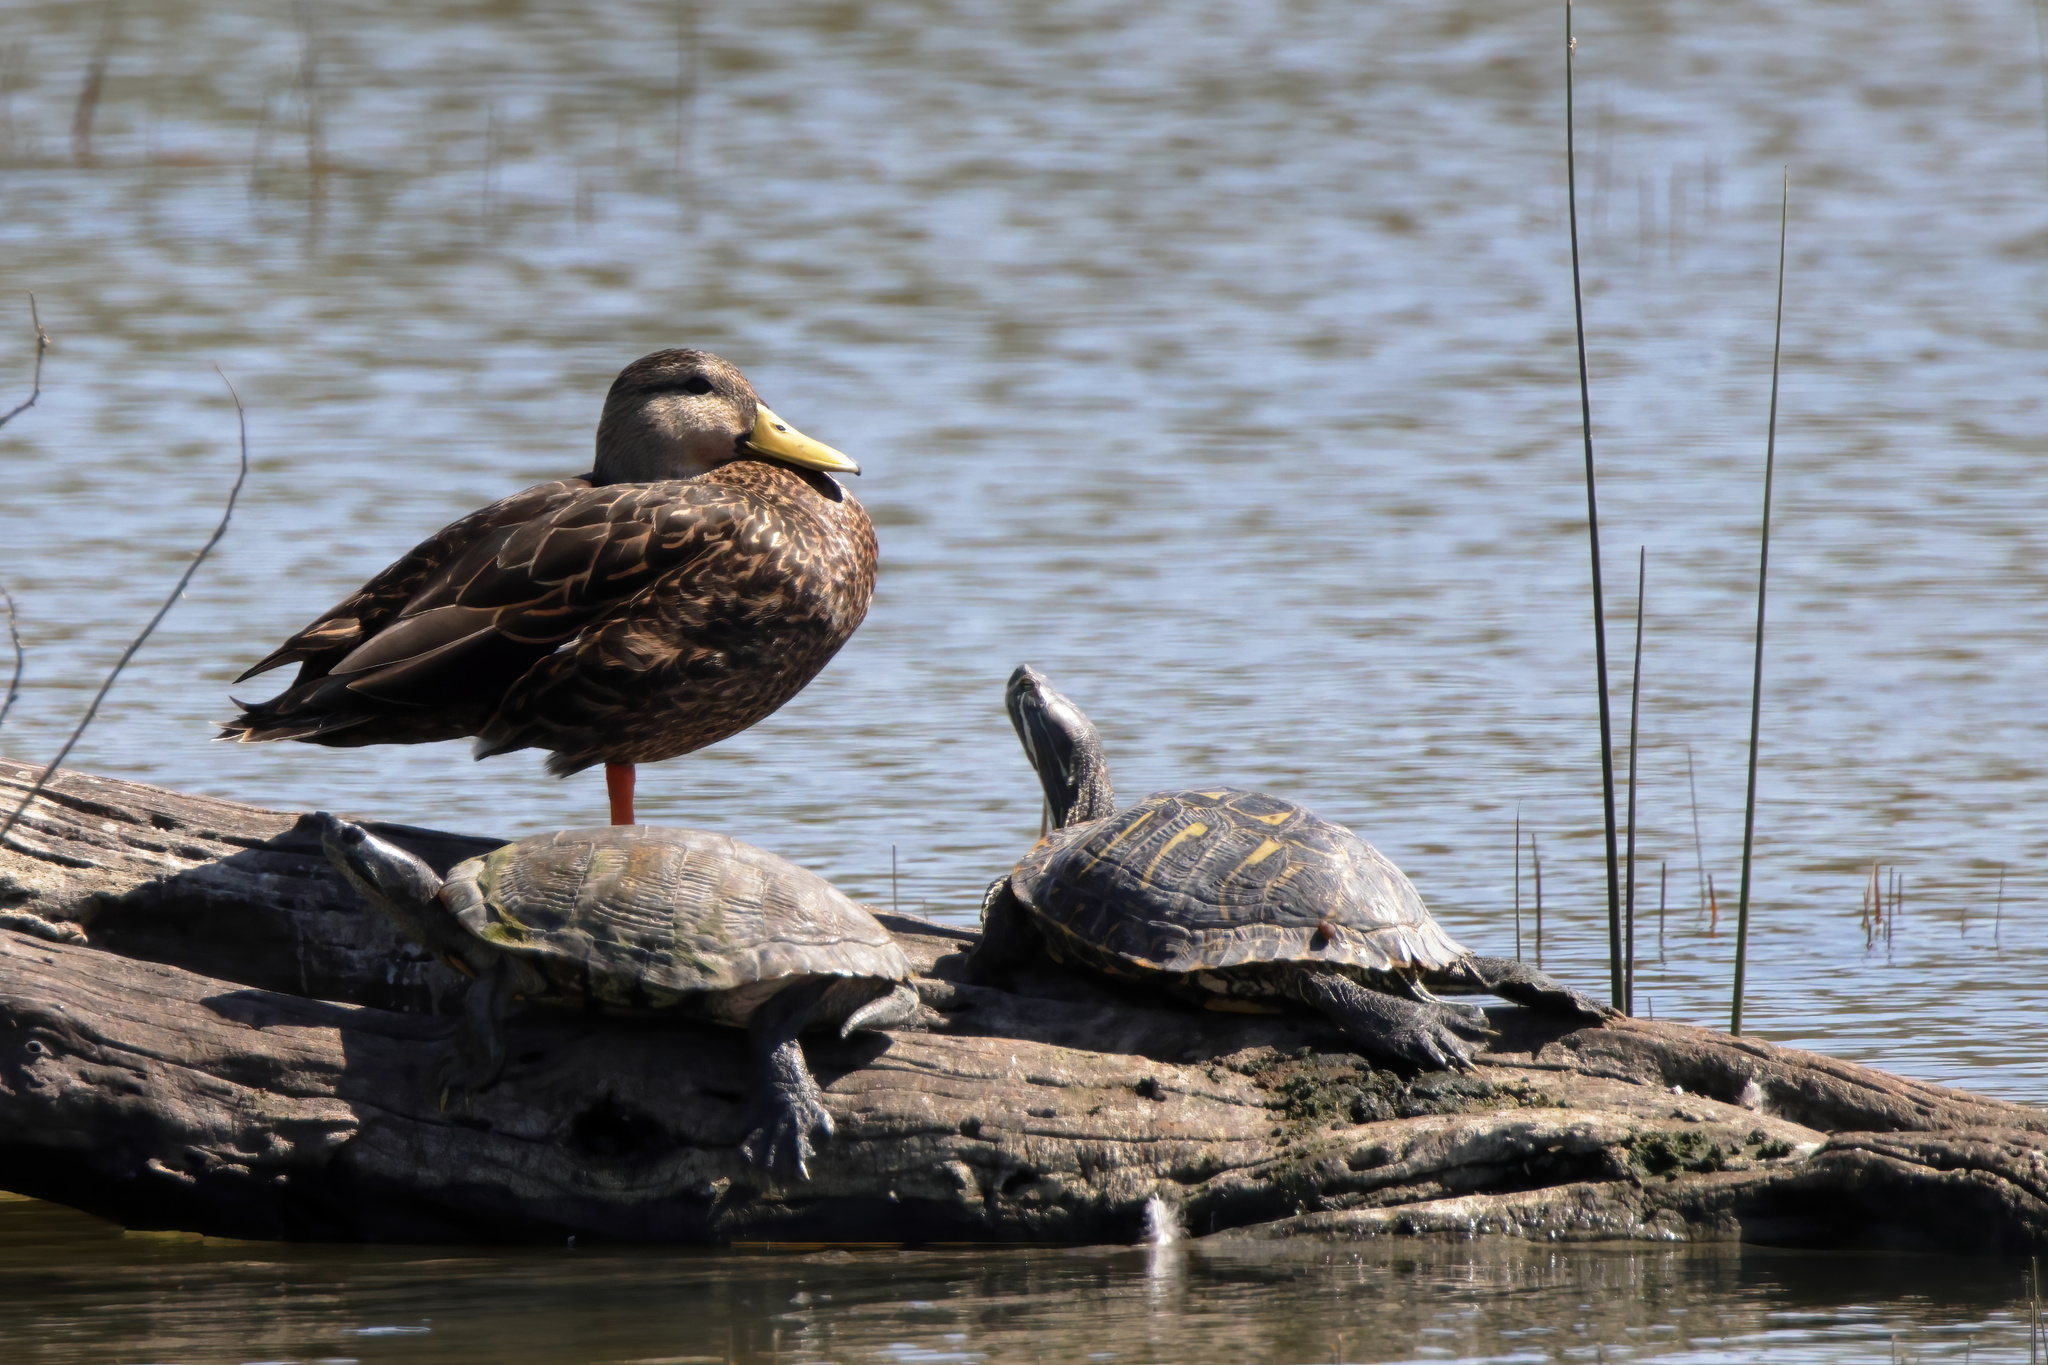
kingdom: Animalia
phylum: Chordata
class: Aves
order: Anseriformes
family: Anatidae
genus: Anas
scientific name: Anas
